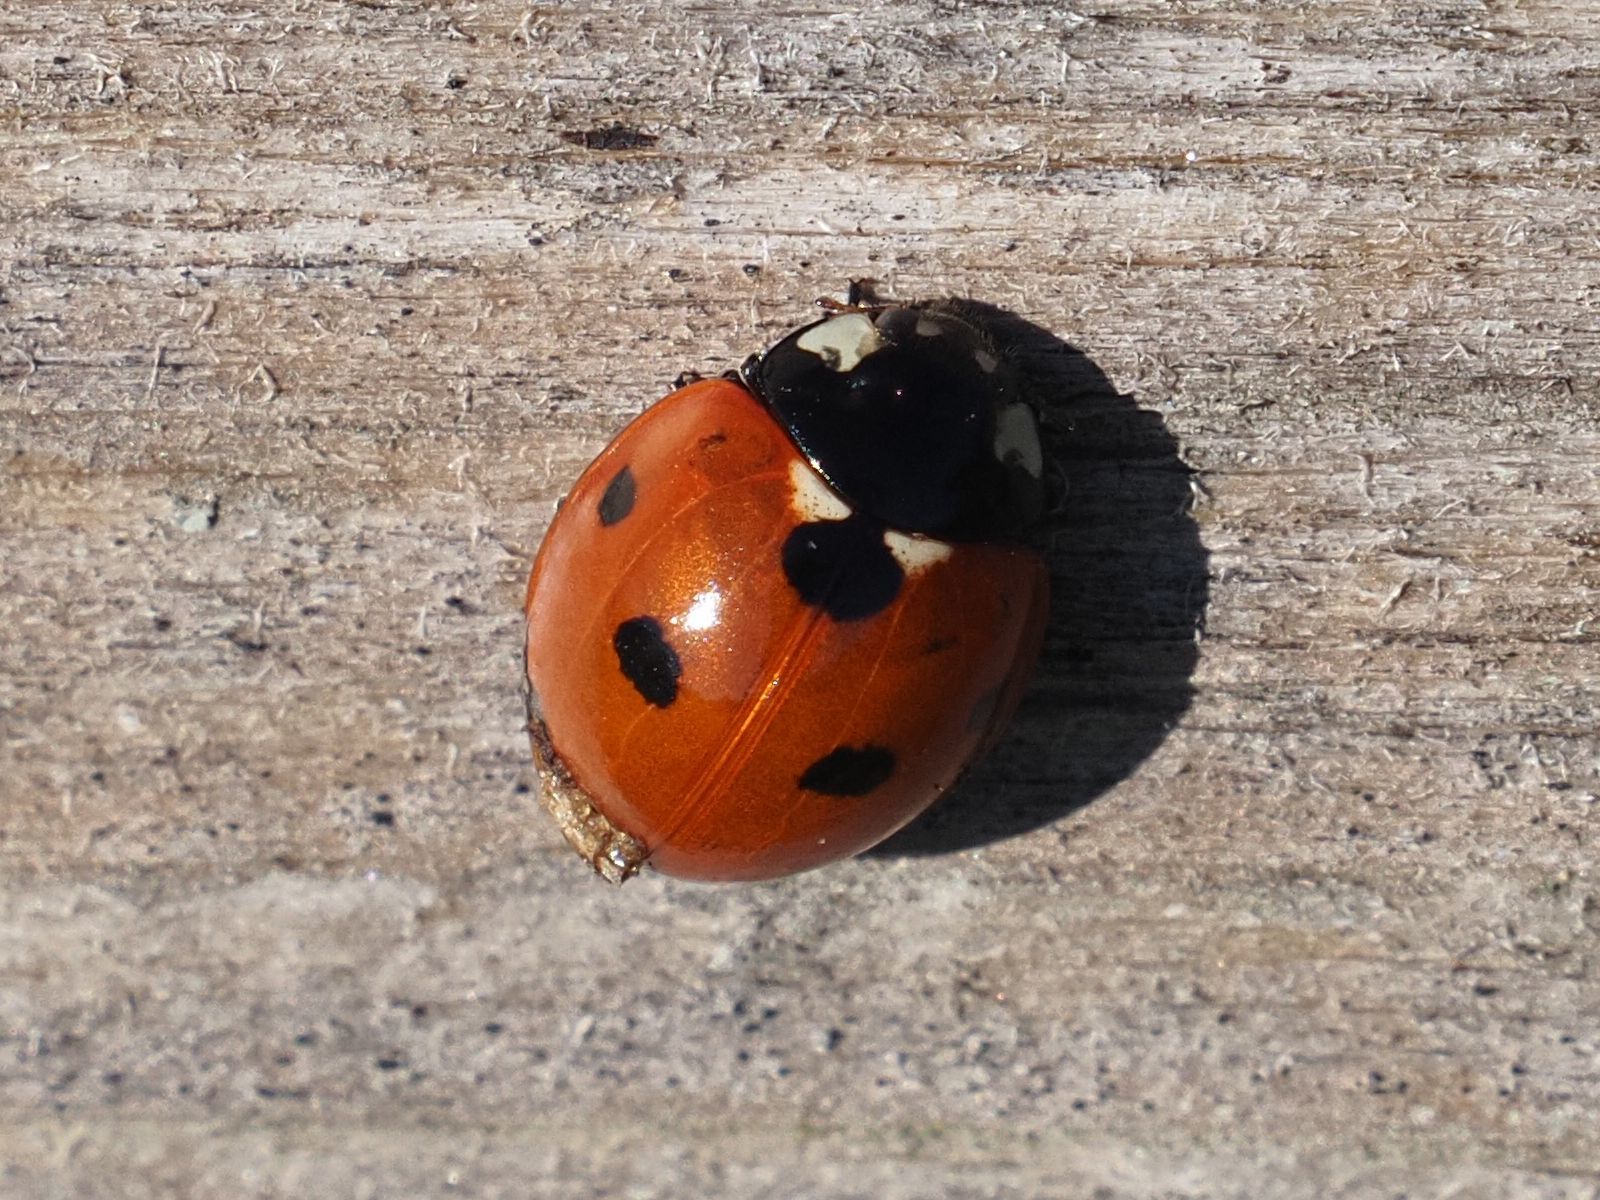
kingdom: Animalia
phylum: Arthropoda
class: Insecta
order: Coleoptera
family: Coccinellidae
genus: Coccinella
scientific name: Coccinella septempunctata
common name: Sevenspotted lady beetle
